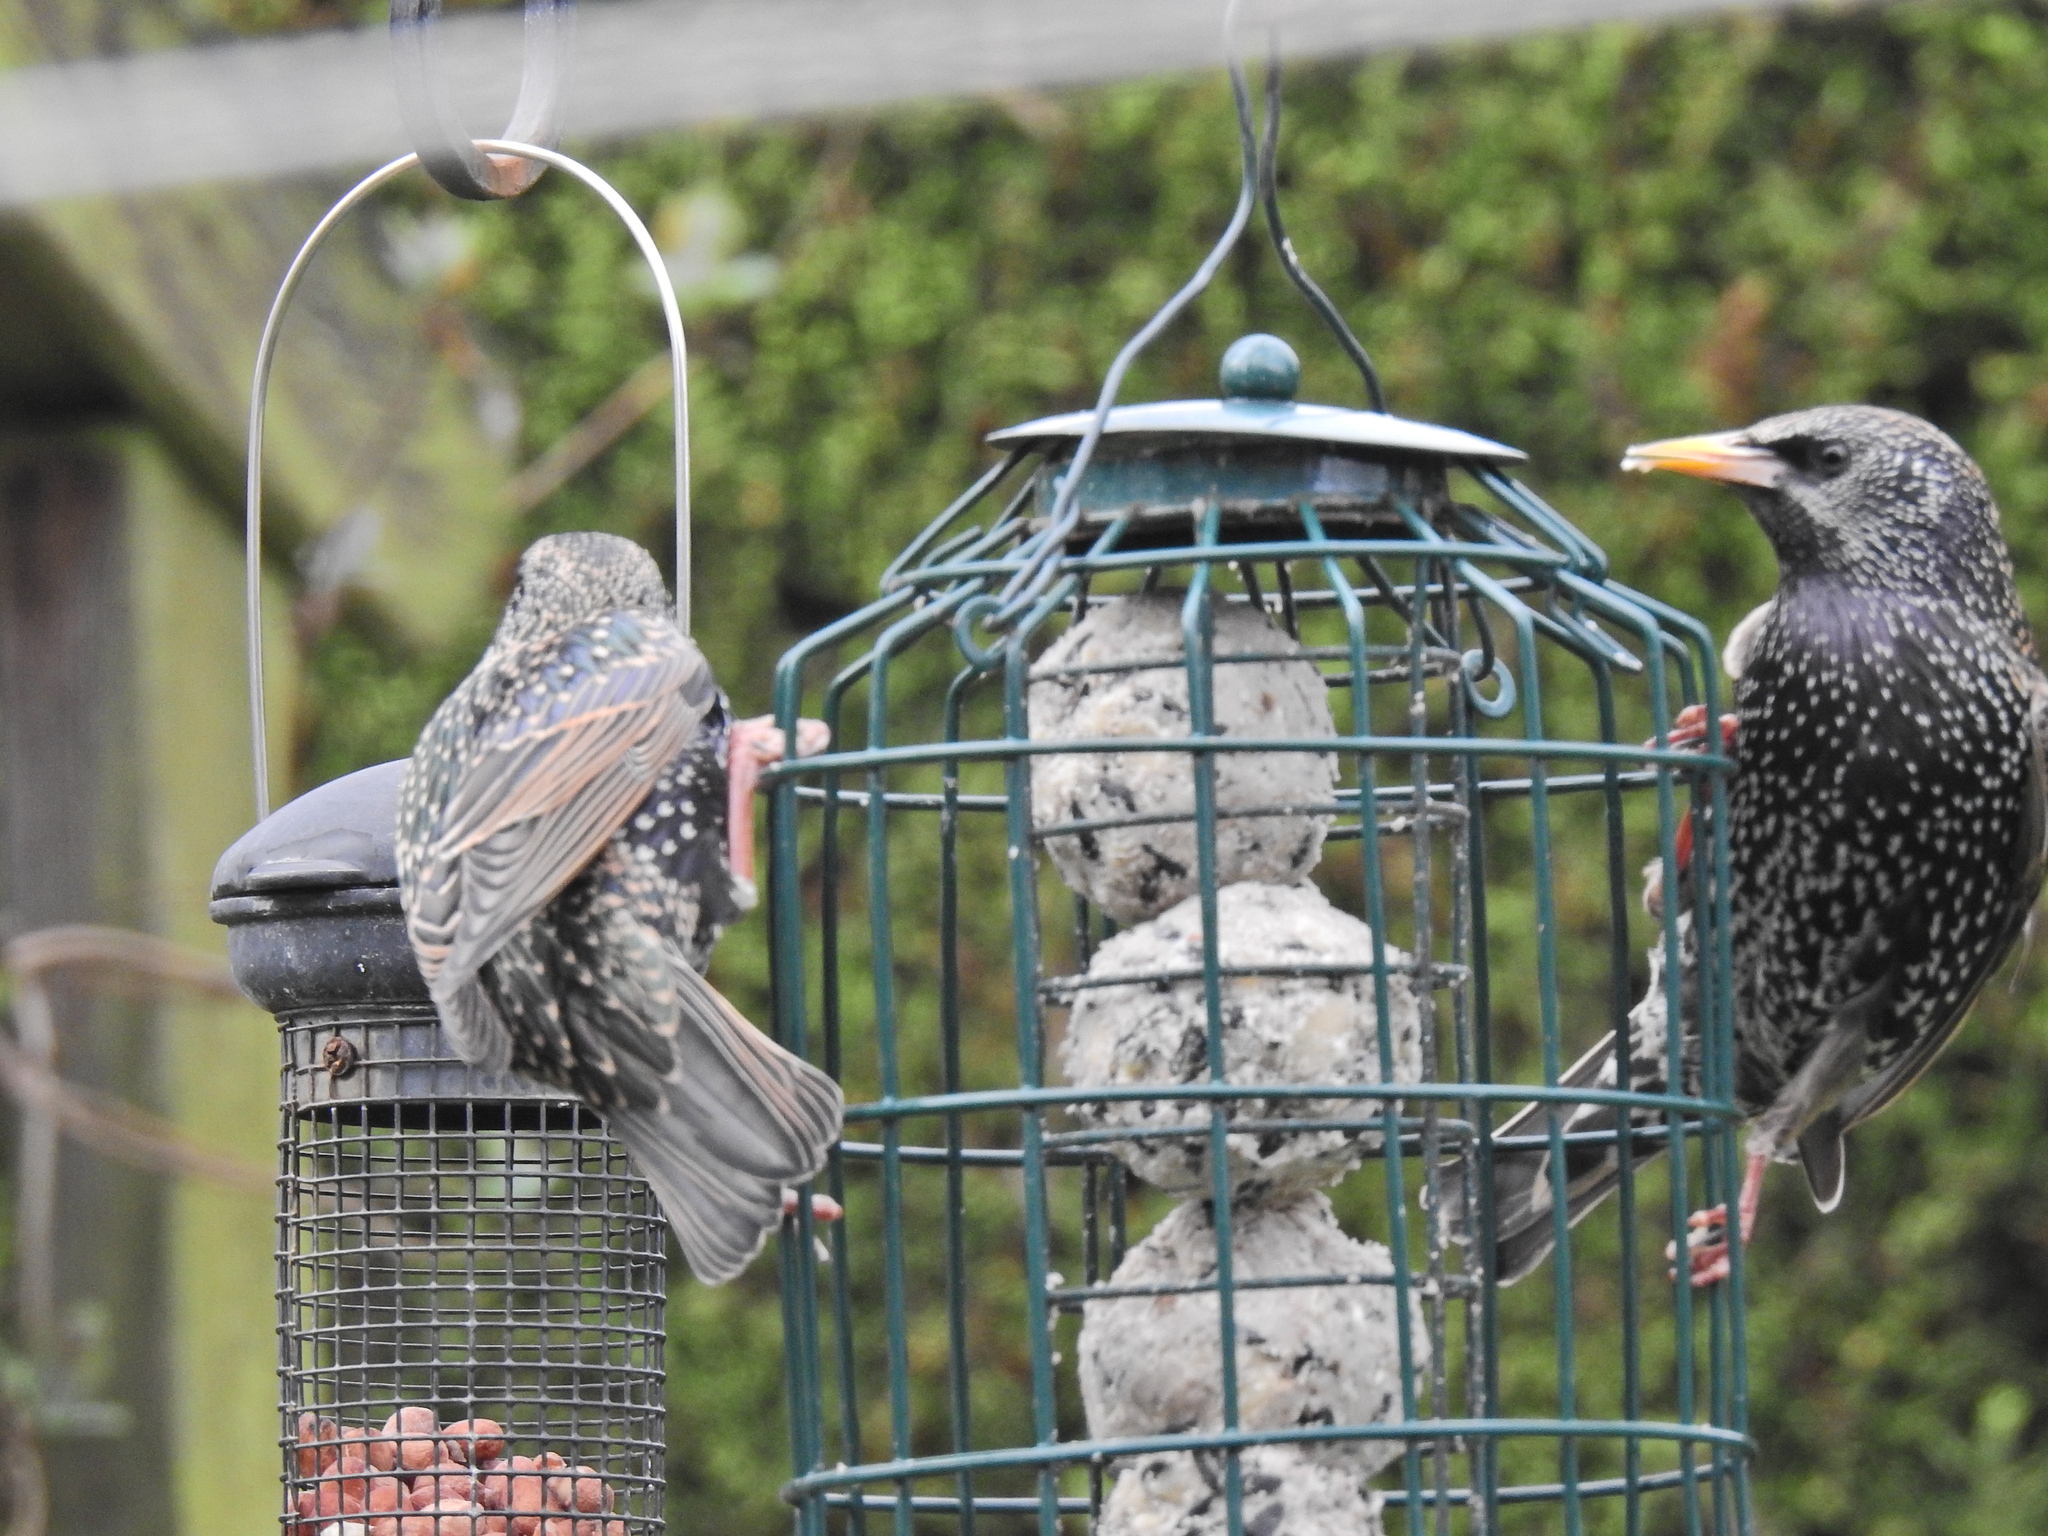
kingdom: Animalia
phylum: Chordata
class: Aves
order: Passeriformes
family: Sturnidae
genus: Sturnus
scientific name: Sturnus vulgaris
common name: Common starling
